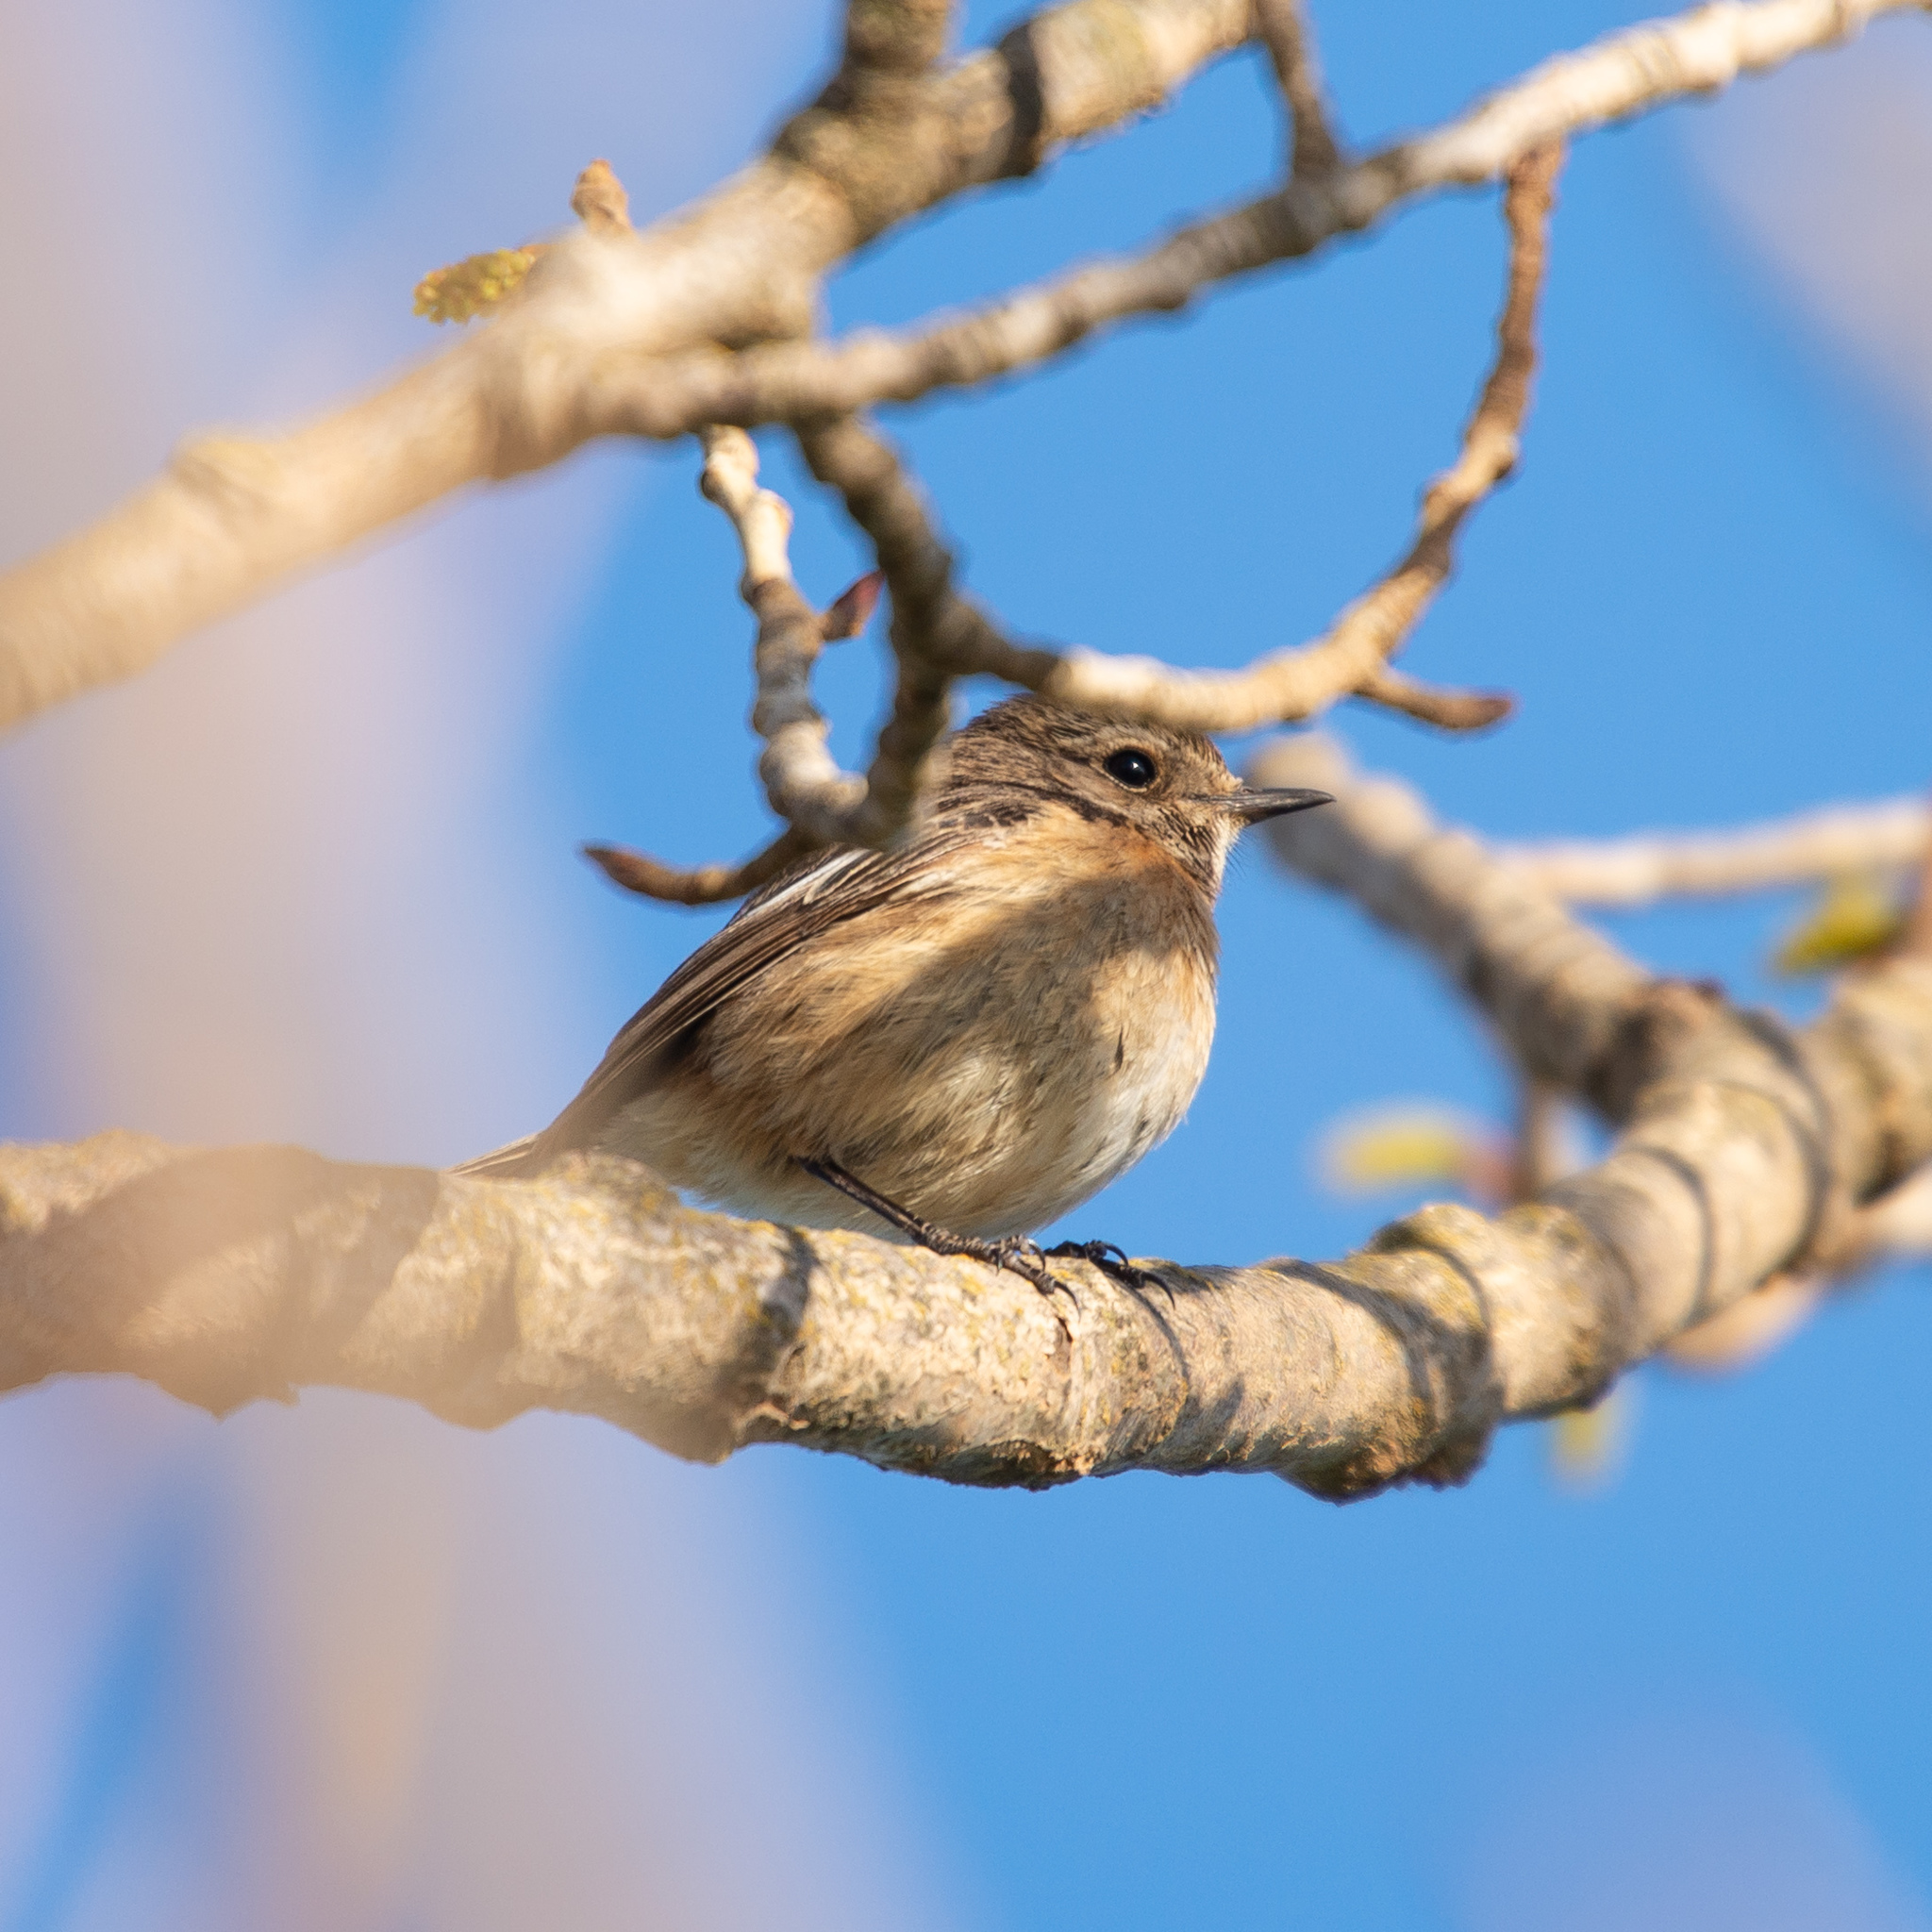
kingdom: Animalia
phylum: Chordata
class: Aves
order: Passeriformes
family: Muscicapidae
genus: Saxicola
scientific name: Saxicola rubicola
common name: European stonechat
